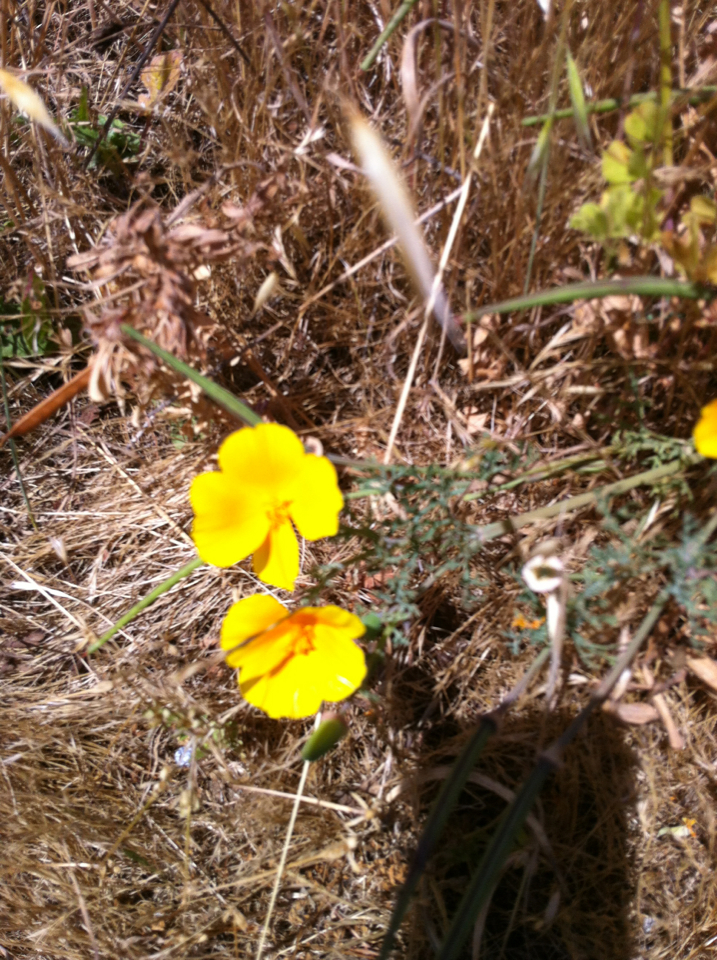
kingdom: Plantae
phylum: Tracheophyta
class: Magnoliopsida
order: Ranunculales
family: Papaveraceae
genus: Eschscholzia
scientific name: Eschscholzia californica
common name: California poppy
